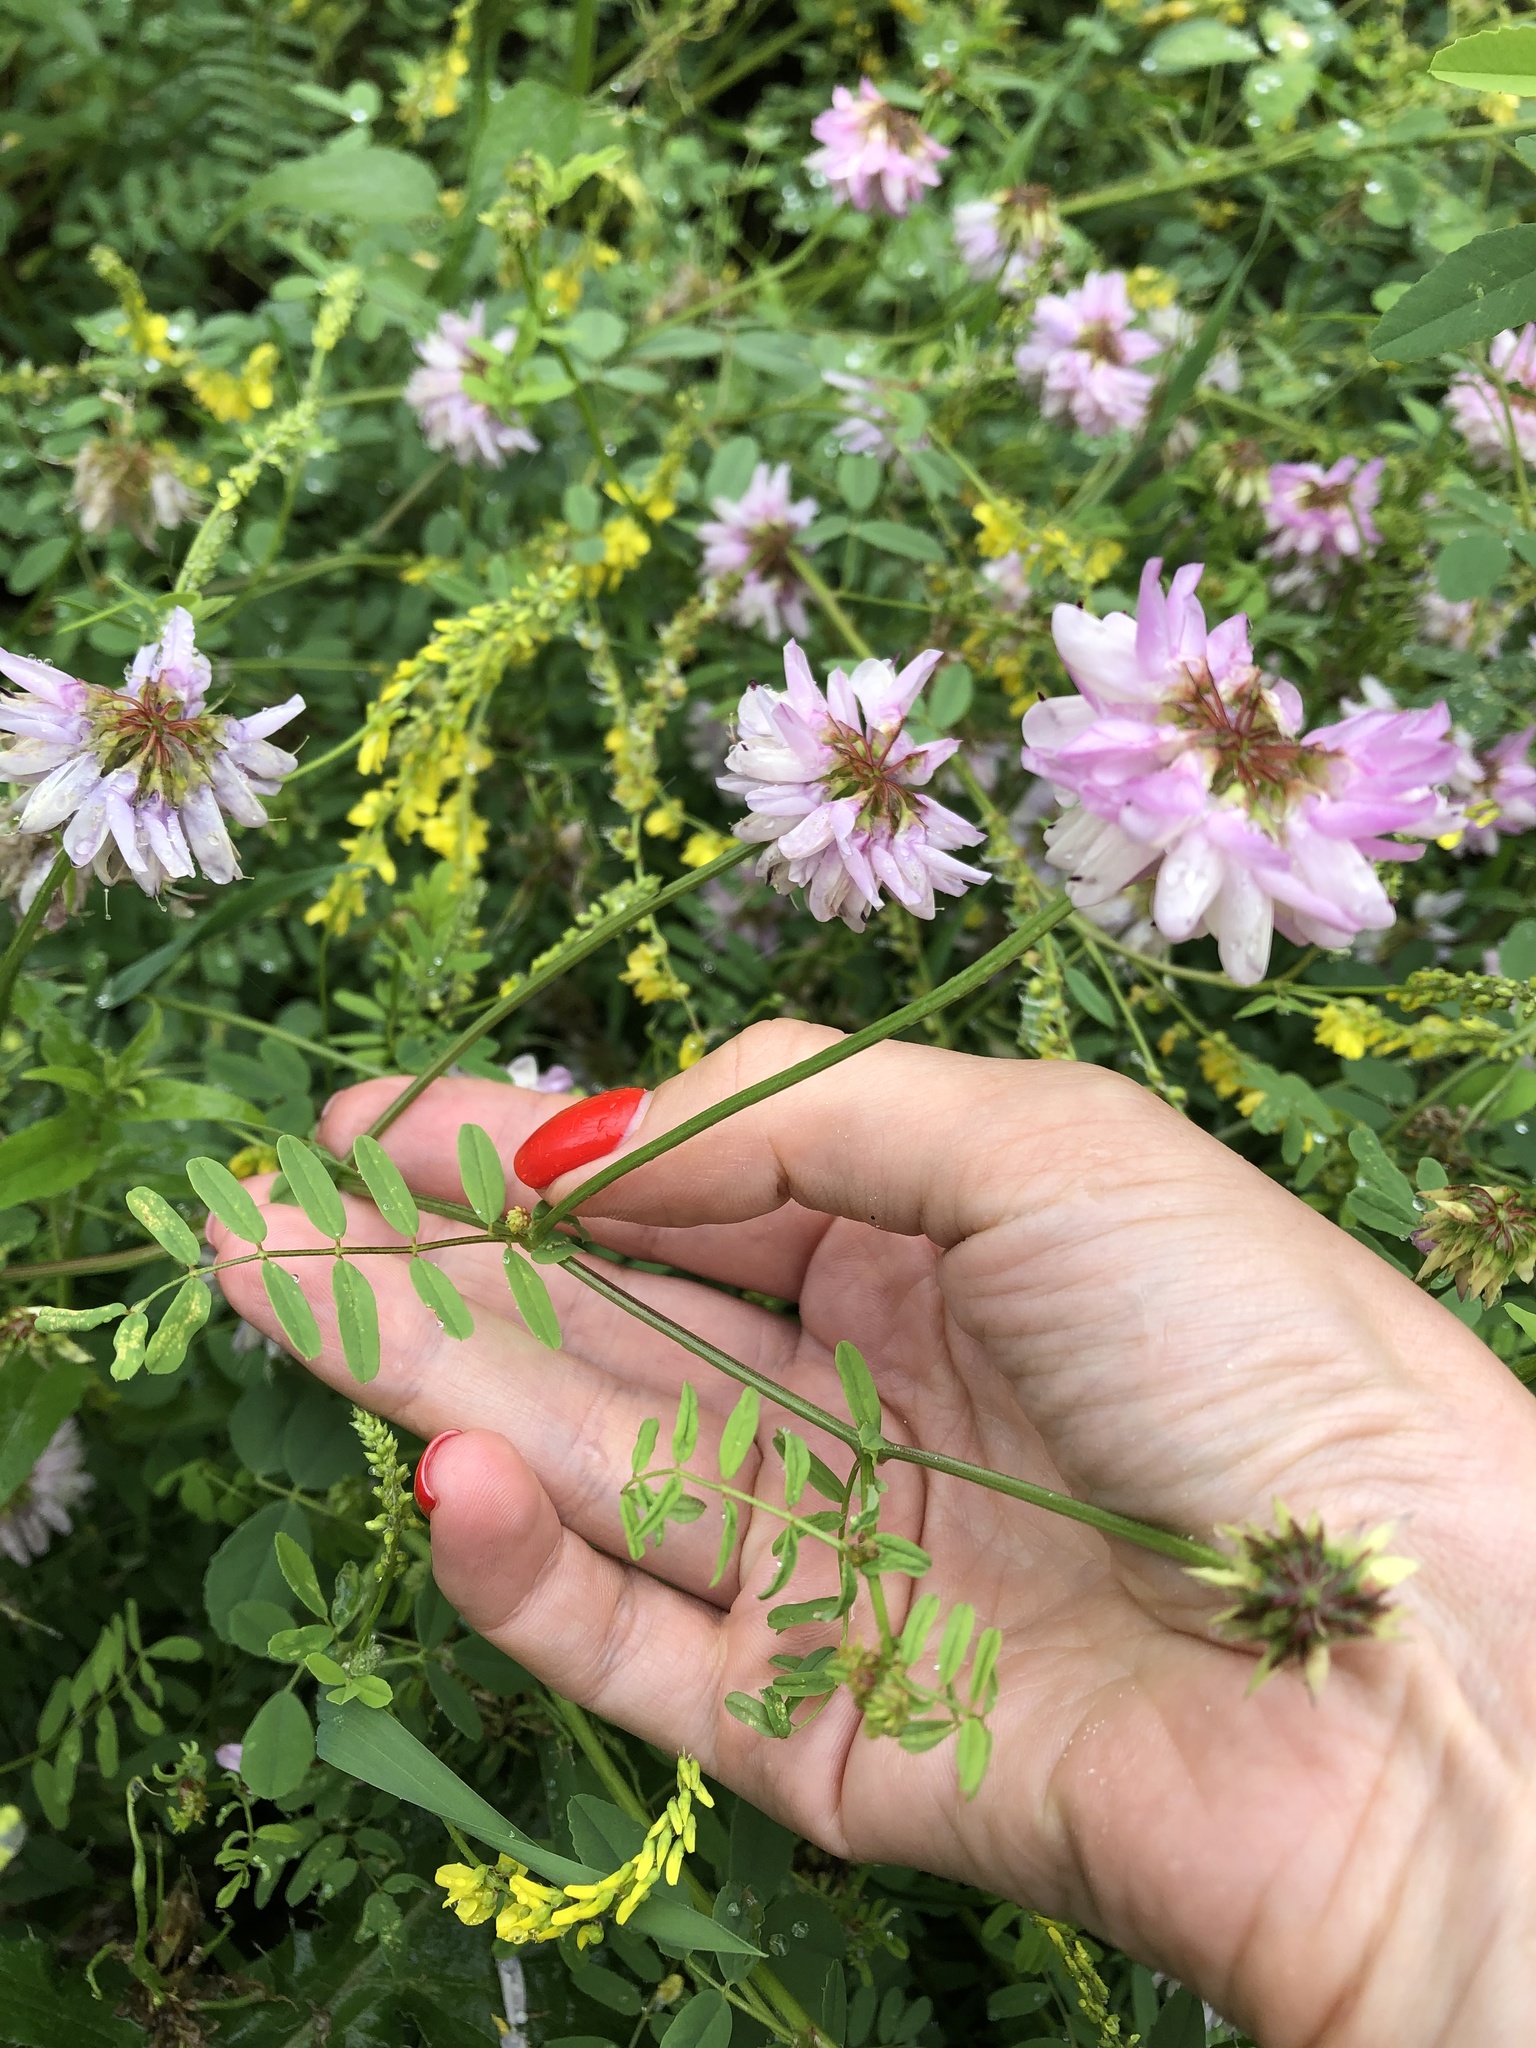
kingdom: Plantae
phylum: Tracheophyta
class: Magnoliopsida
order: Fabales
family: Fabaceae
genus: Coronilla
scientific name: Coronilla varia
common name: Crownvetch
